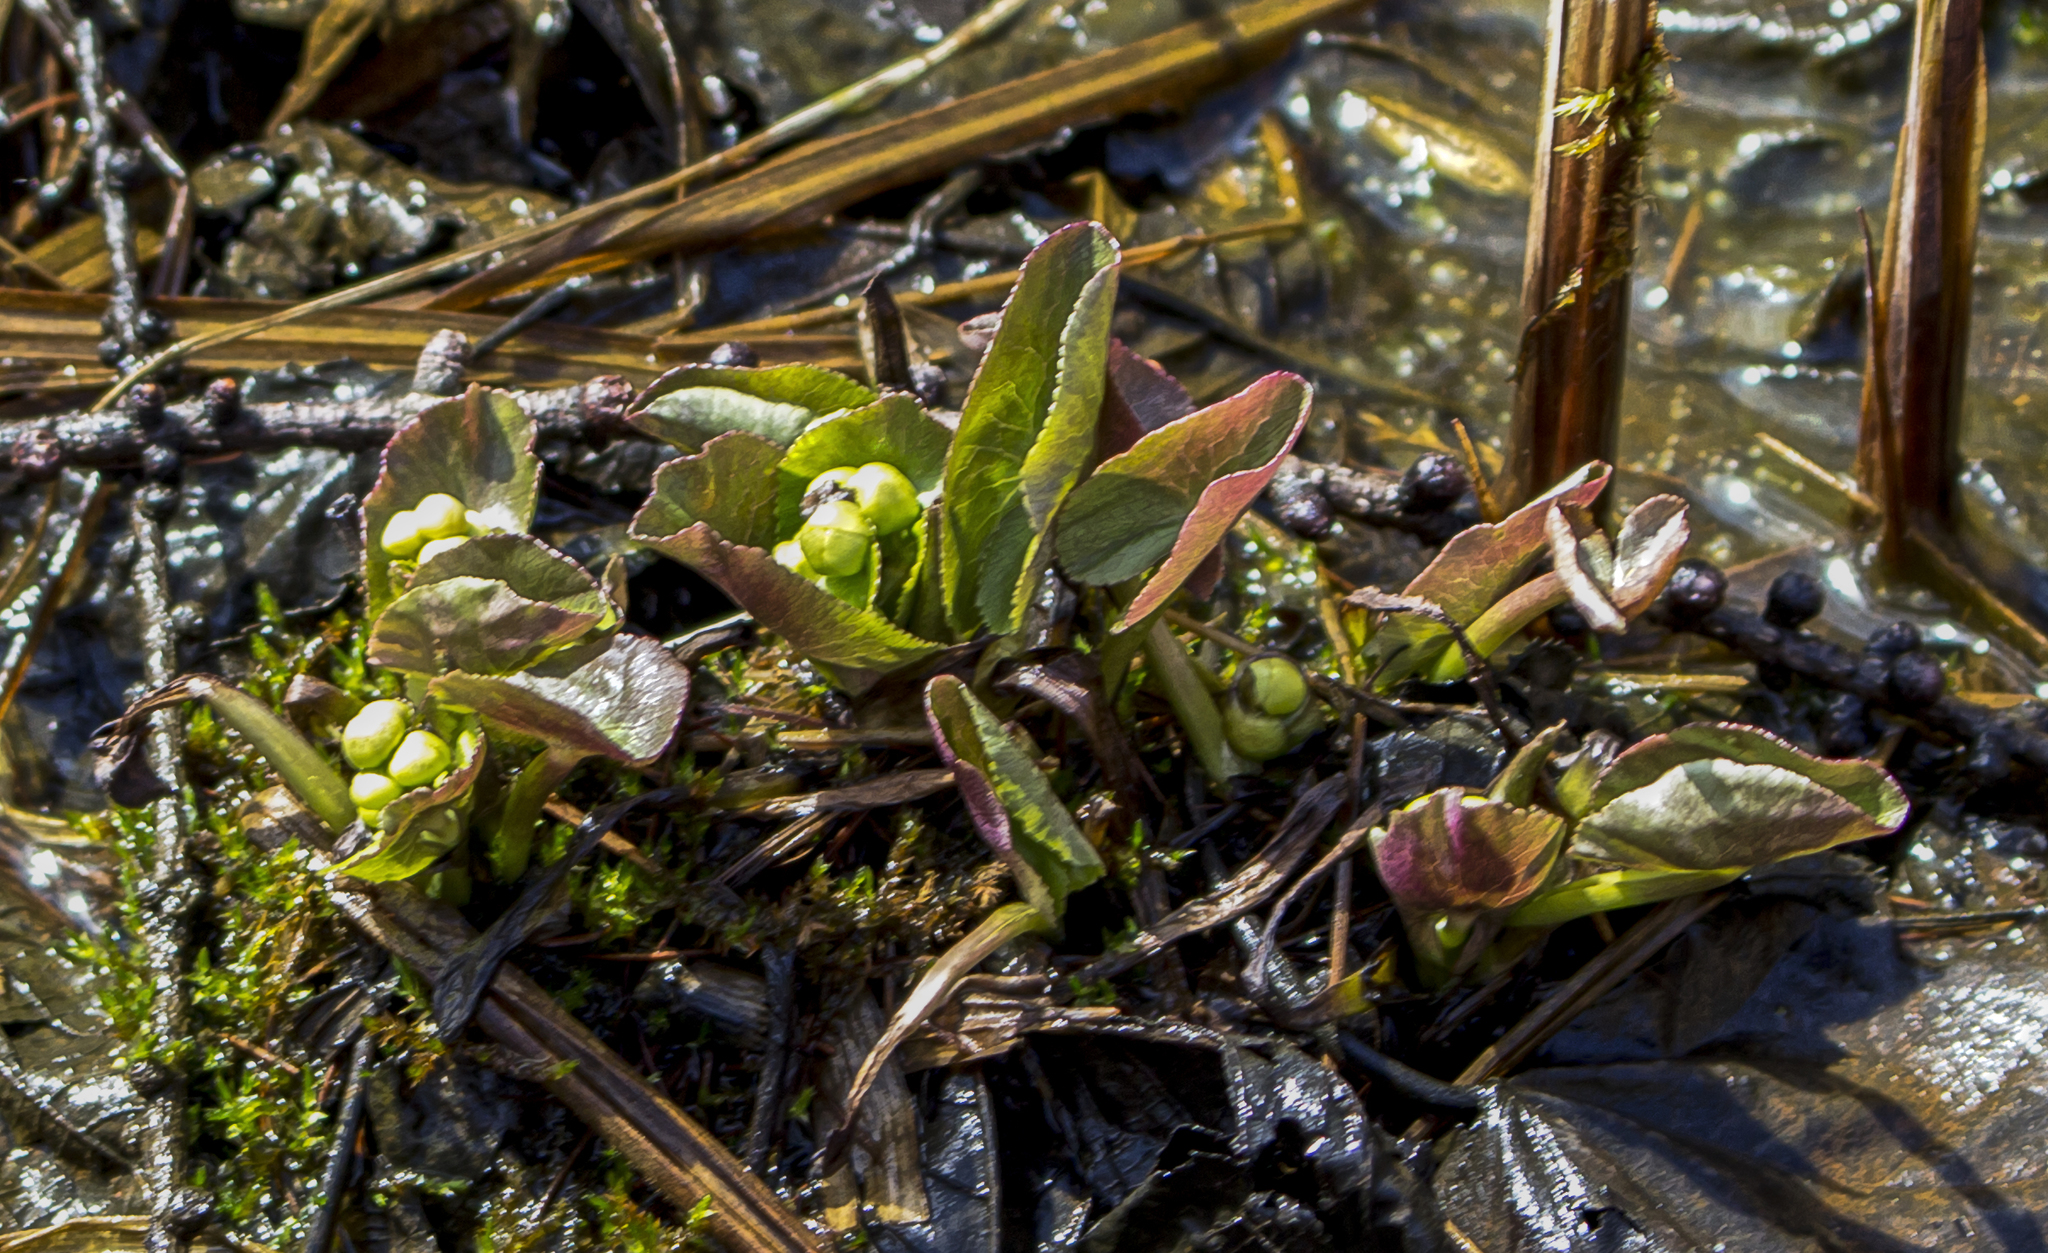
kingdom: Plantae
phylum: Tracheophyta
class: Magnoliopsida
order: Ranunculales
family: Ranunculaceae
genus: Caltha
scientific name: Caltha palustris
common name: Marsh marigold
